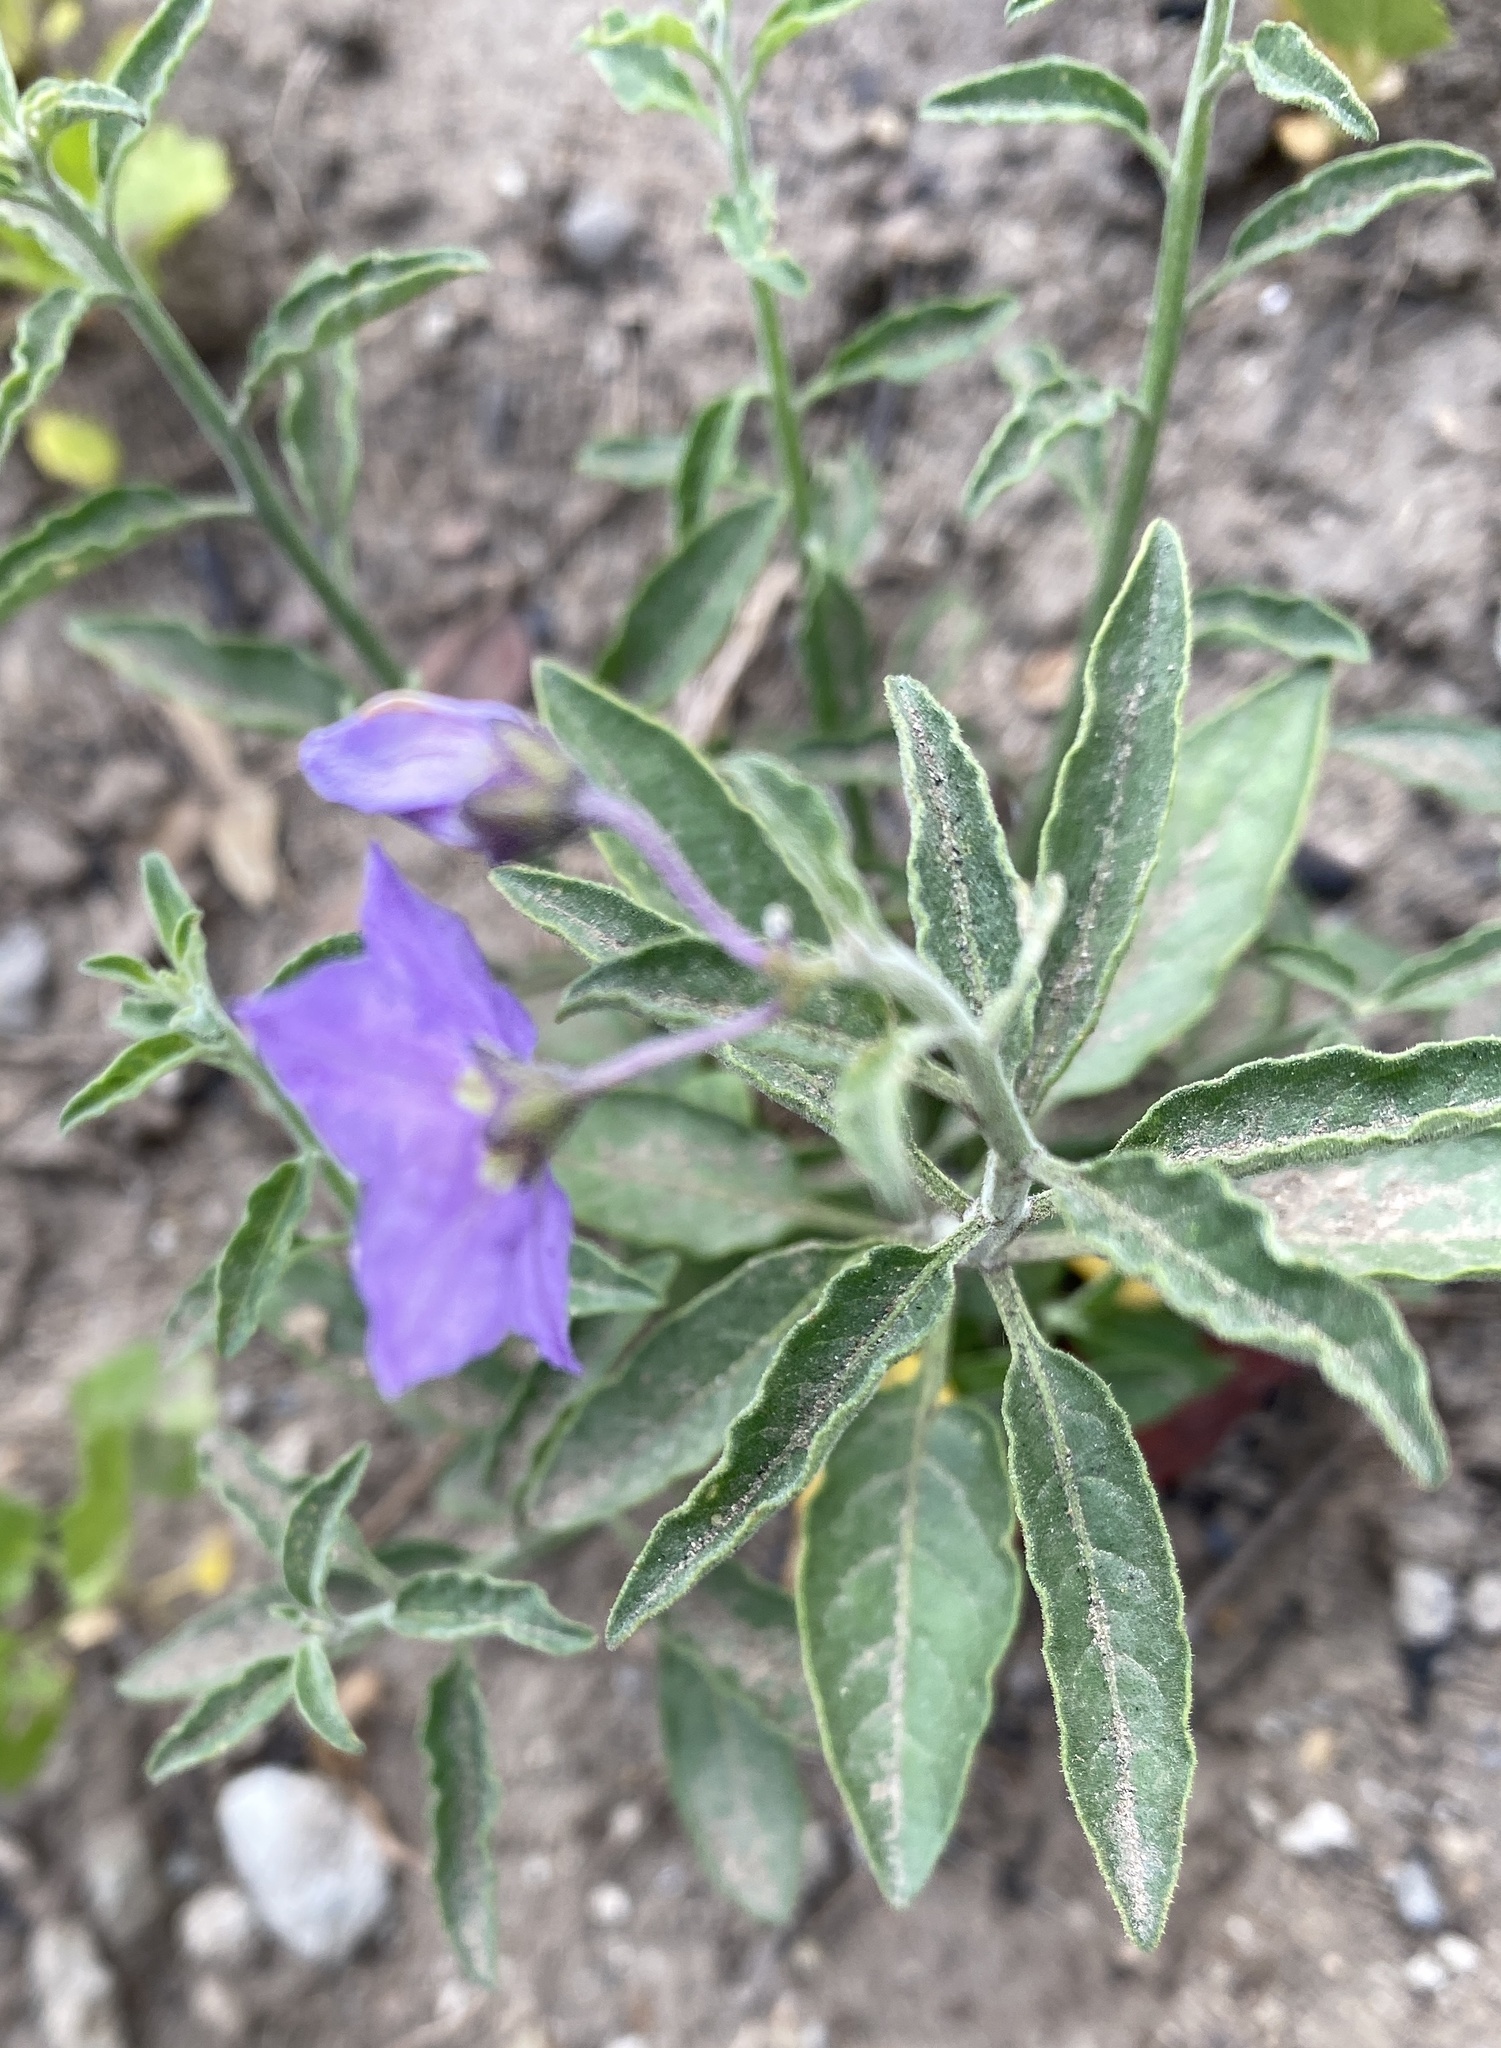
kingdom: Plantae
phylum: Tracheophyta
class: Magnoliopsida
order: Solanales
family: Solanaceae
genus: Solanum
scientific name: Solanum umbelliferum
